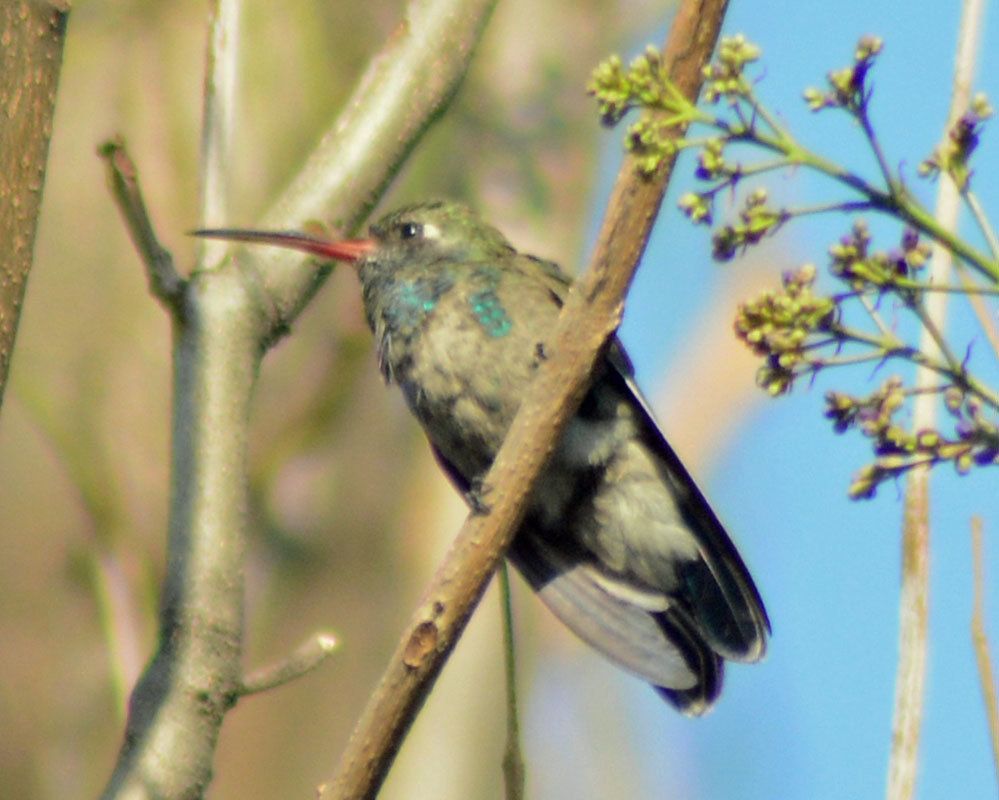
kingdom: Animalia
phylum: Chordata
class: Aves
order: Apodiformes
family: Trochilidae
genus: Cynanthus
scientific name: Cynanthus latirostris
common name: Broad-billed hummingbird
